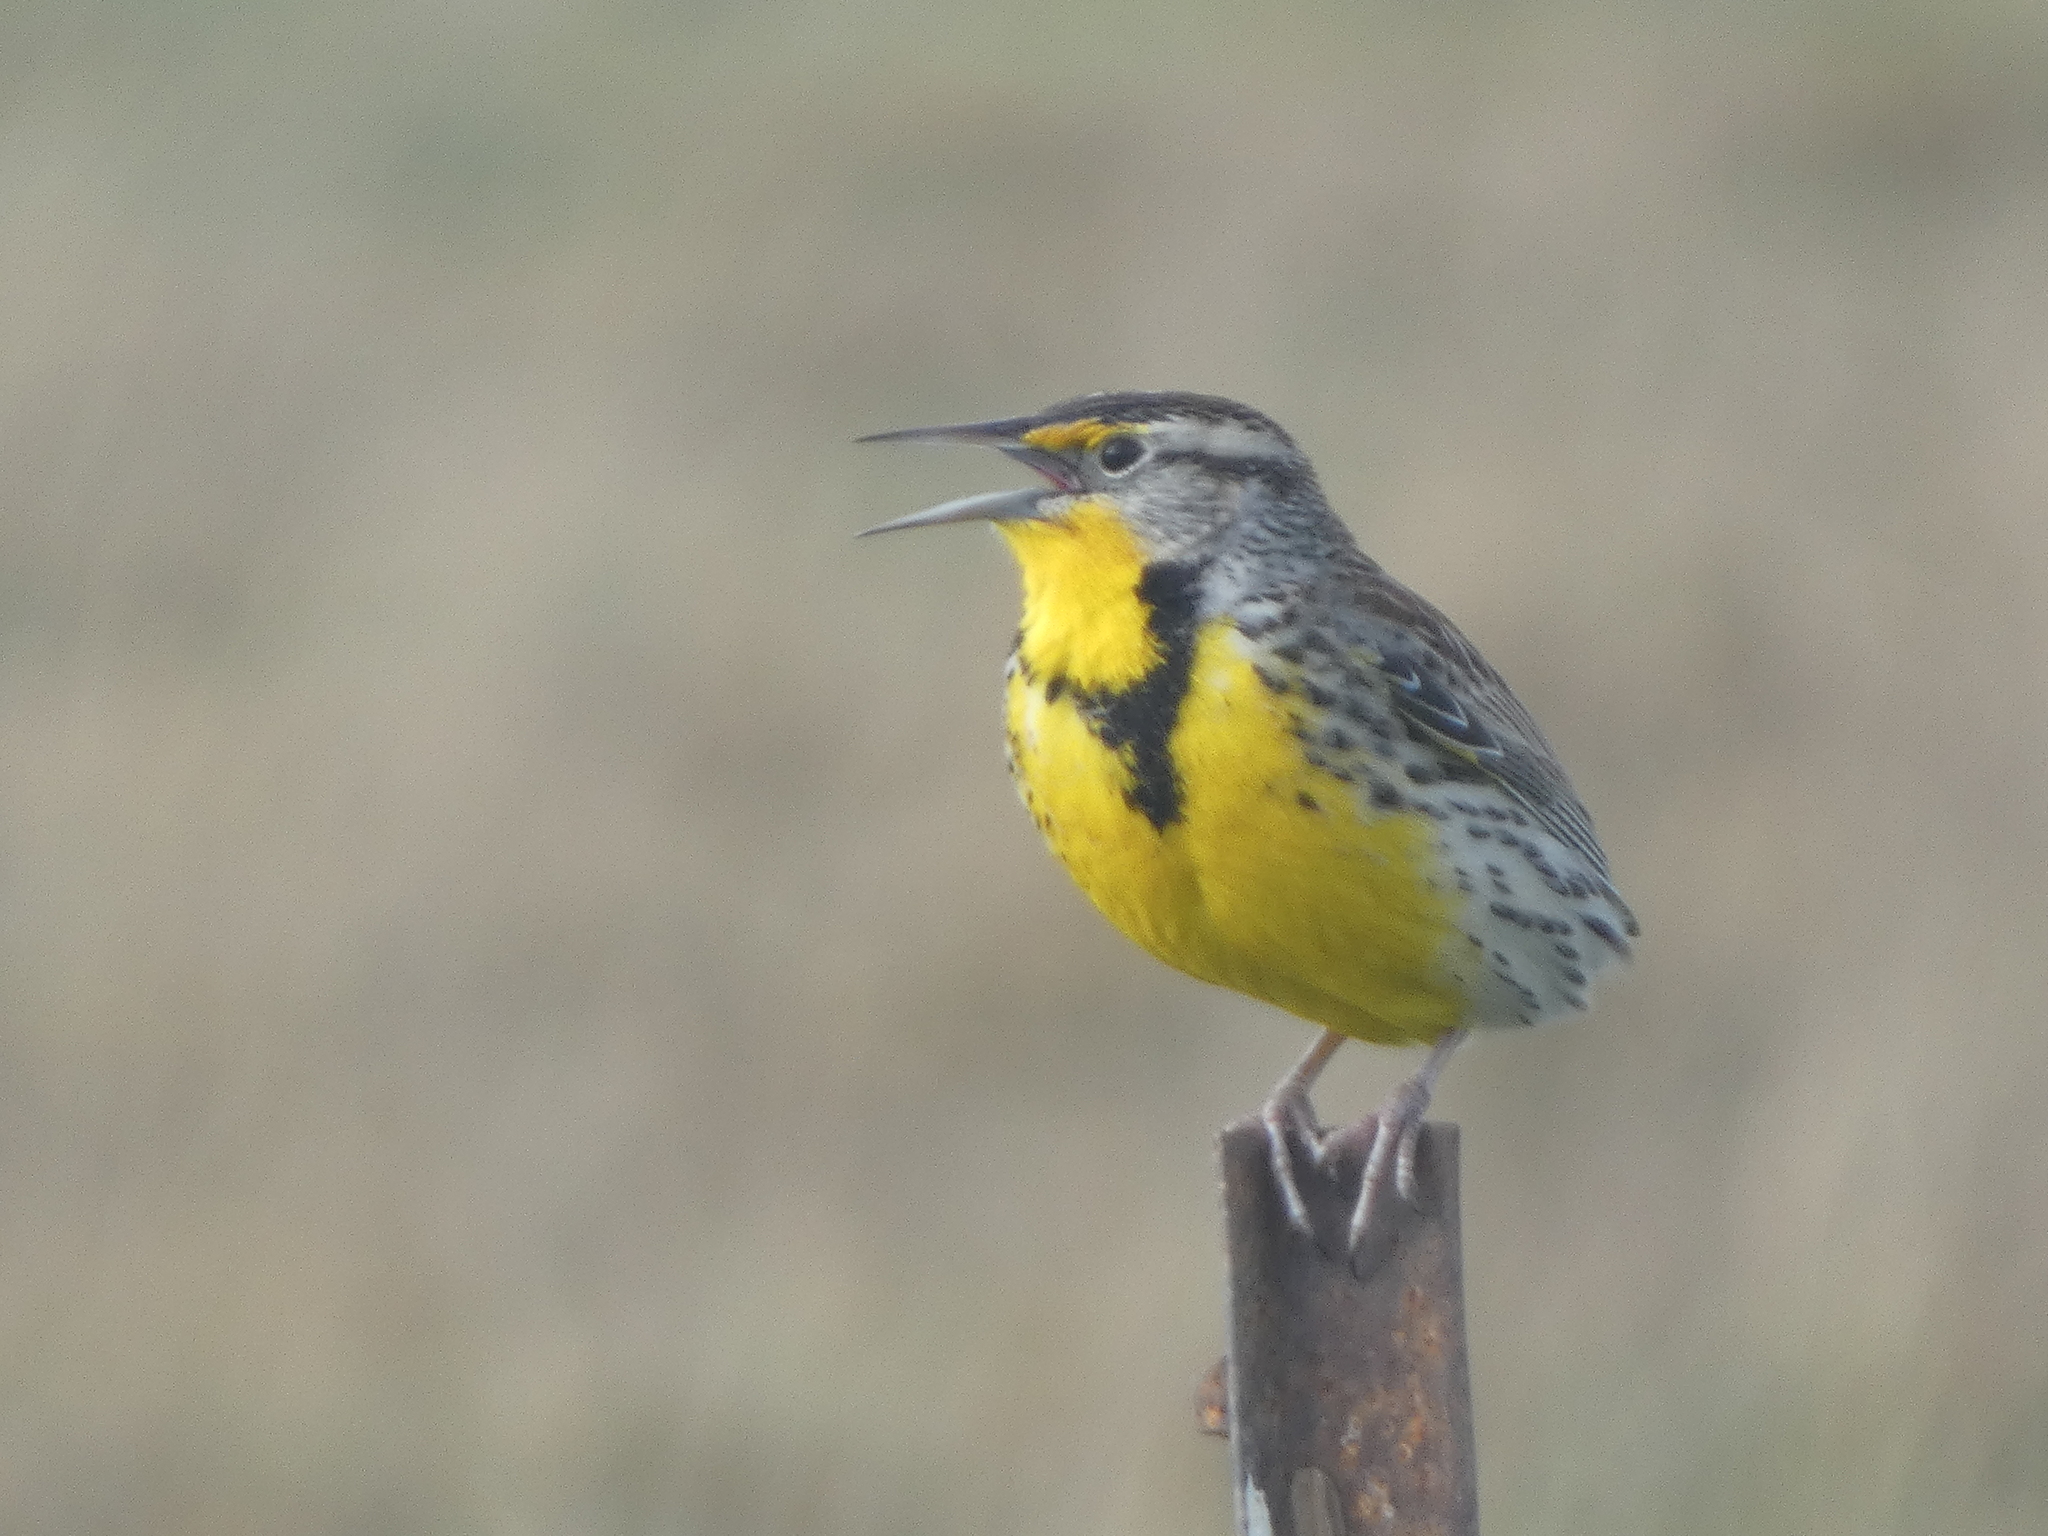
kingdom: Animalia
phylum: Chordata
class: Aves
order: Passeriformes
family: Icteridae
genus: Sturnella
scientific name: Sturnella neglecta
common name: Western meadowlark
